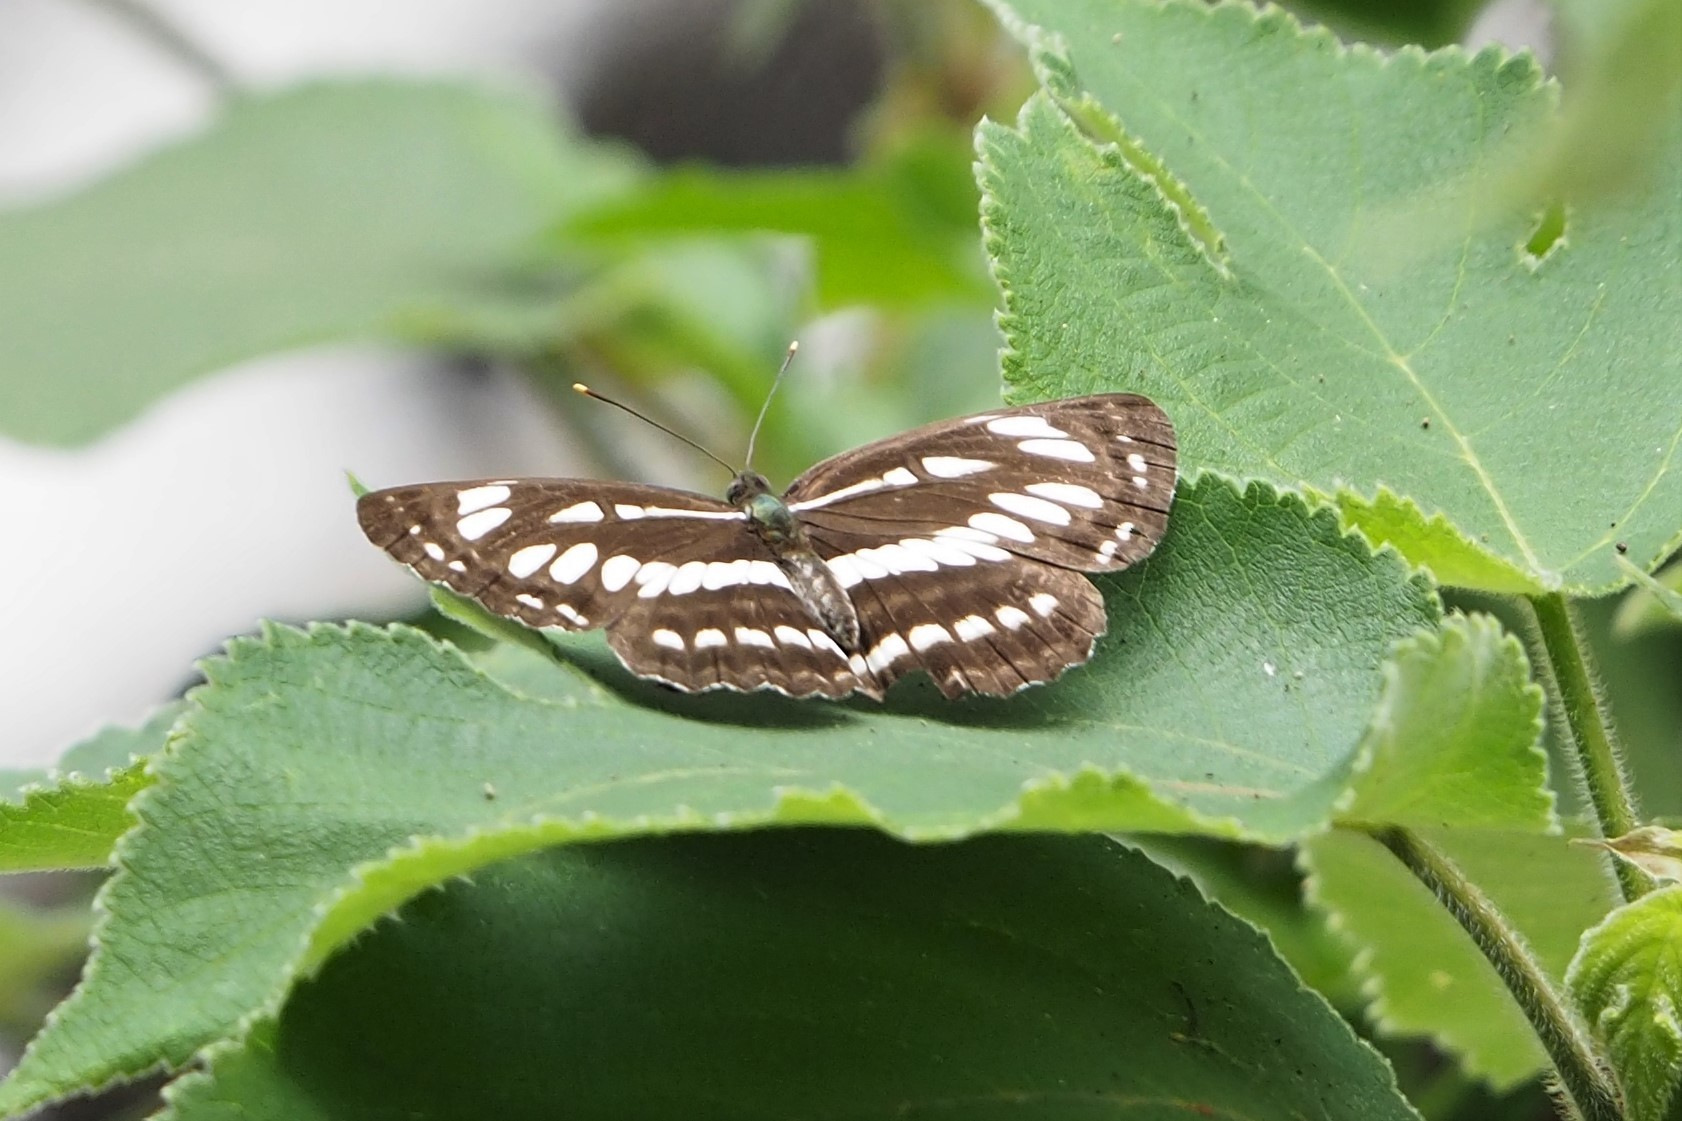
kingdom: Animalia
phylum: Arthropoda
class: Insecta
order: Lepidoptera
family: Nymphalidae
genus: Neptis
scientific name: Neptis hylas
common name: Common sailer
